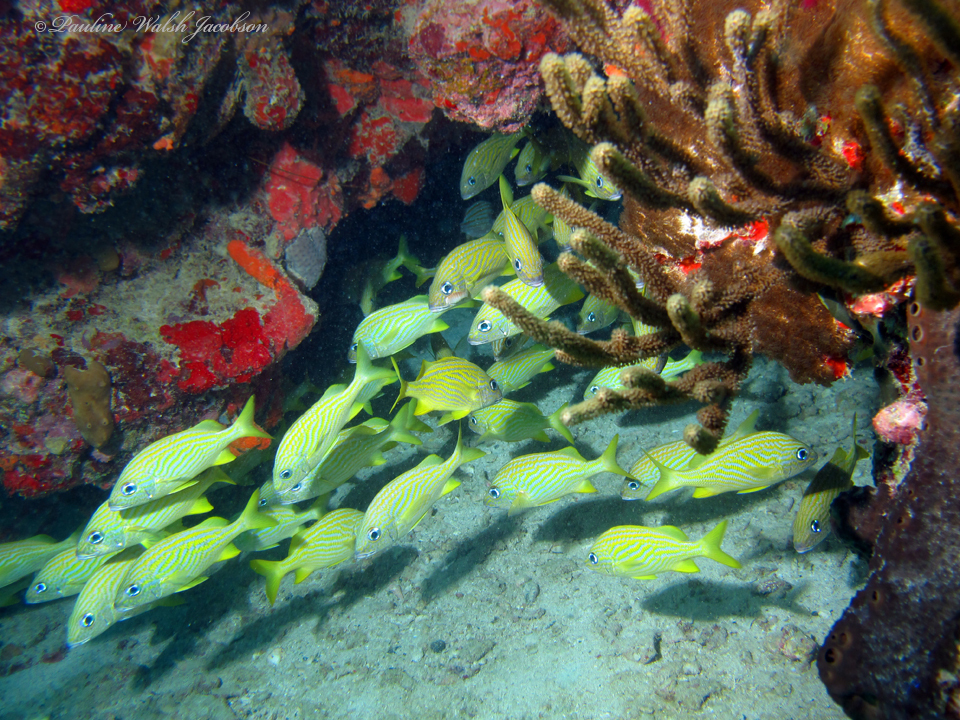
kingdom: Animalia
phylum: Chordata
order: Perciformes
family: Haemulidae
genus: Haemulon
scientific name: Haemulon flavolineatum
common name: French grunt
